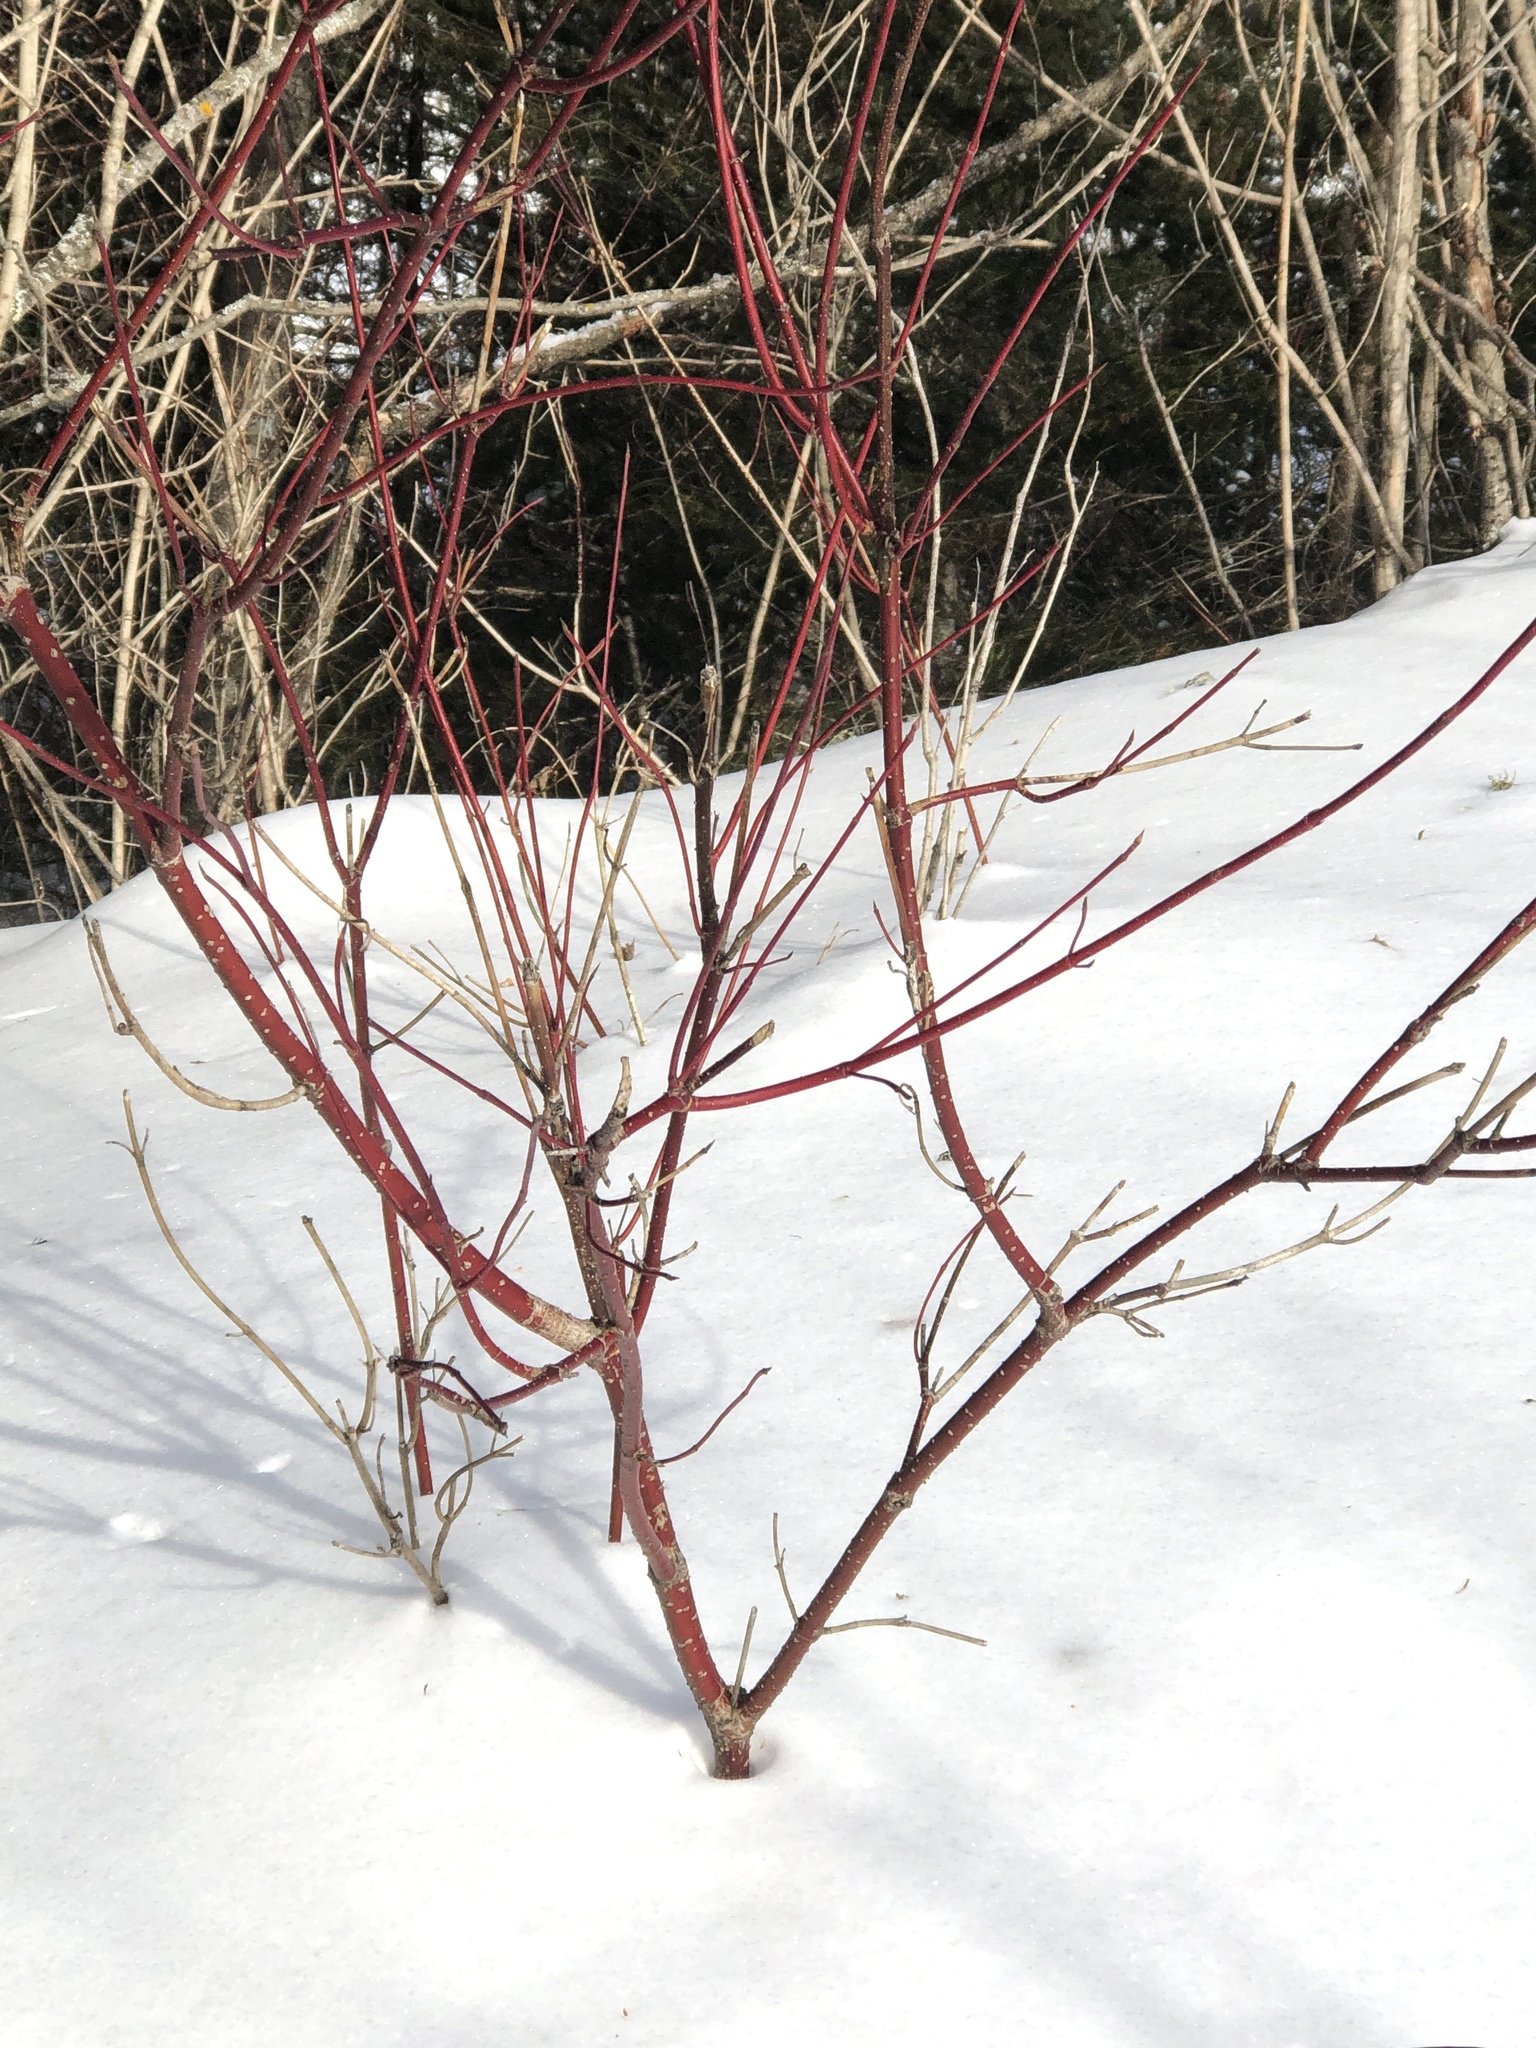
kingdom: Plantae
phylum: Tracheophyta
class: Magnoliopsida
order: Cornales
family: Cornaceae
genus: Cornus
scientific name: Cornus sericea
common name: Red-osier dogwood
